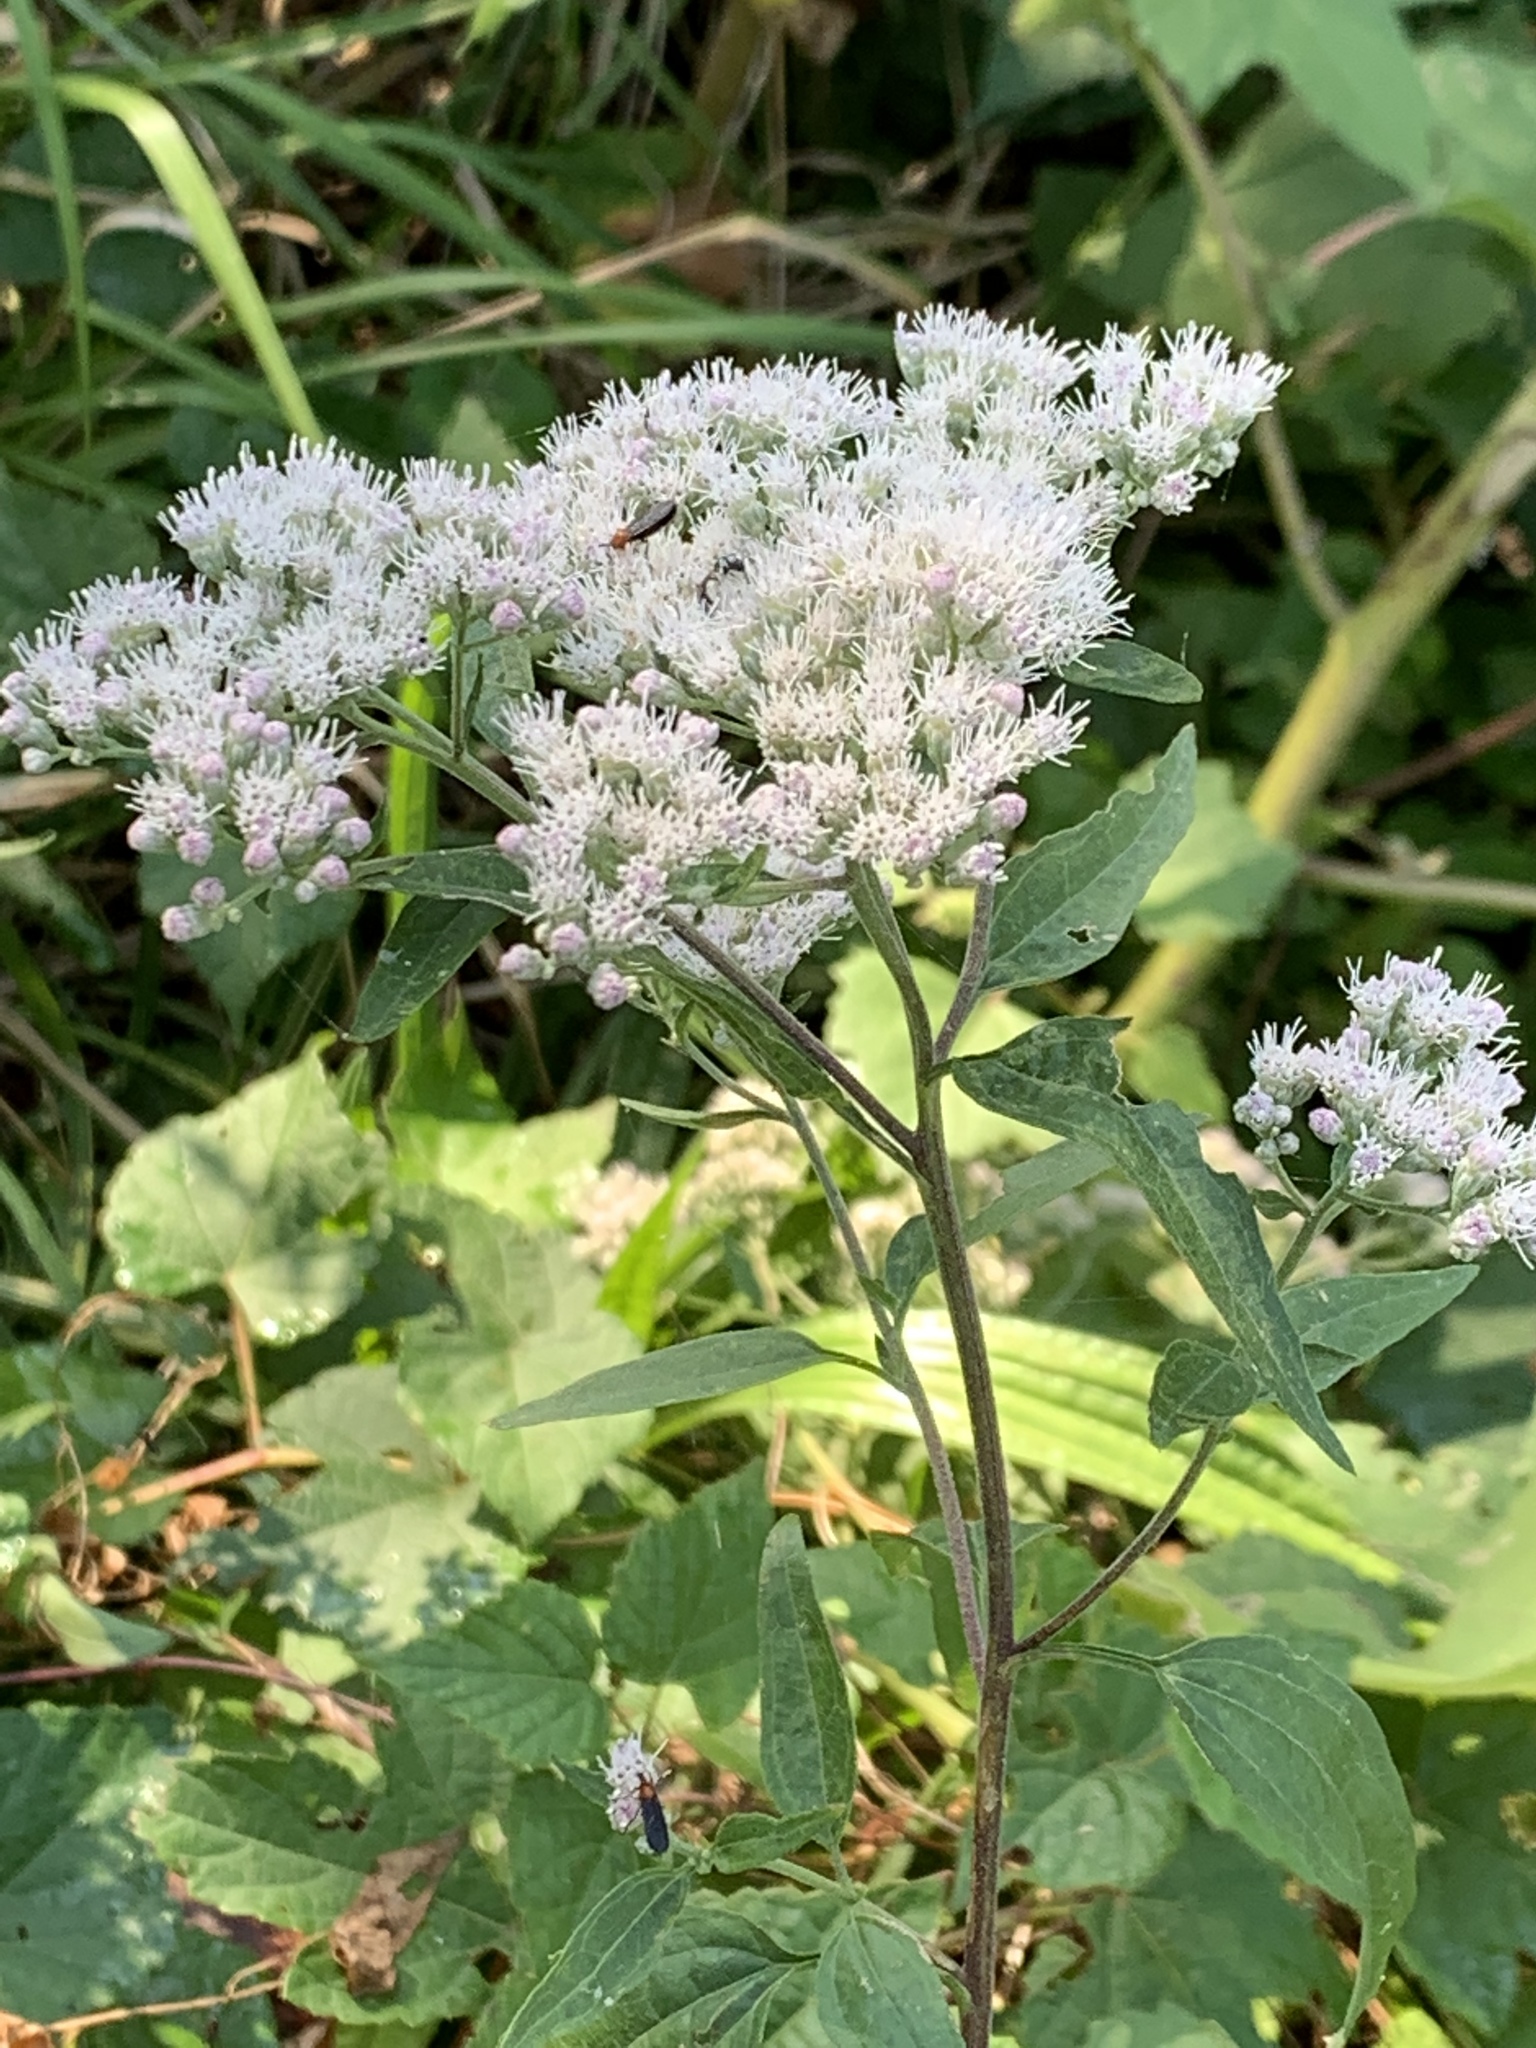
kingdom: Plantae
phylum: Tracheophyta
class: Magnoliopsida
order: Asterales
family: Asteraceae
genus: Eupatorium
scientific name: Eupatorium serotinum
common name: Late boneset
